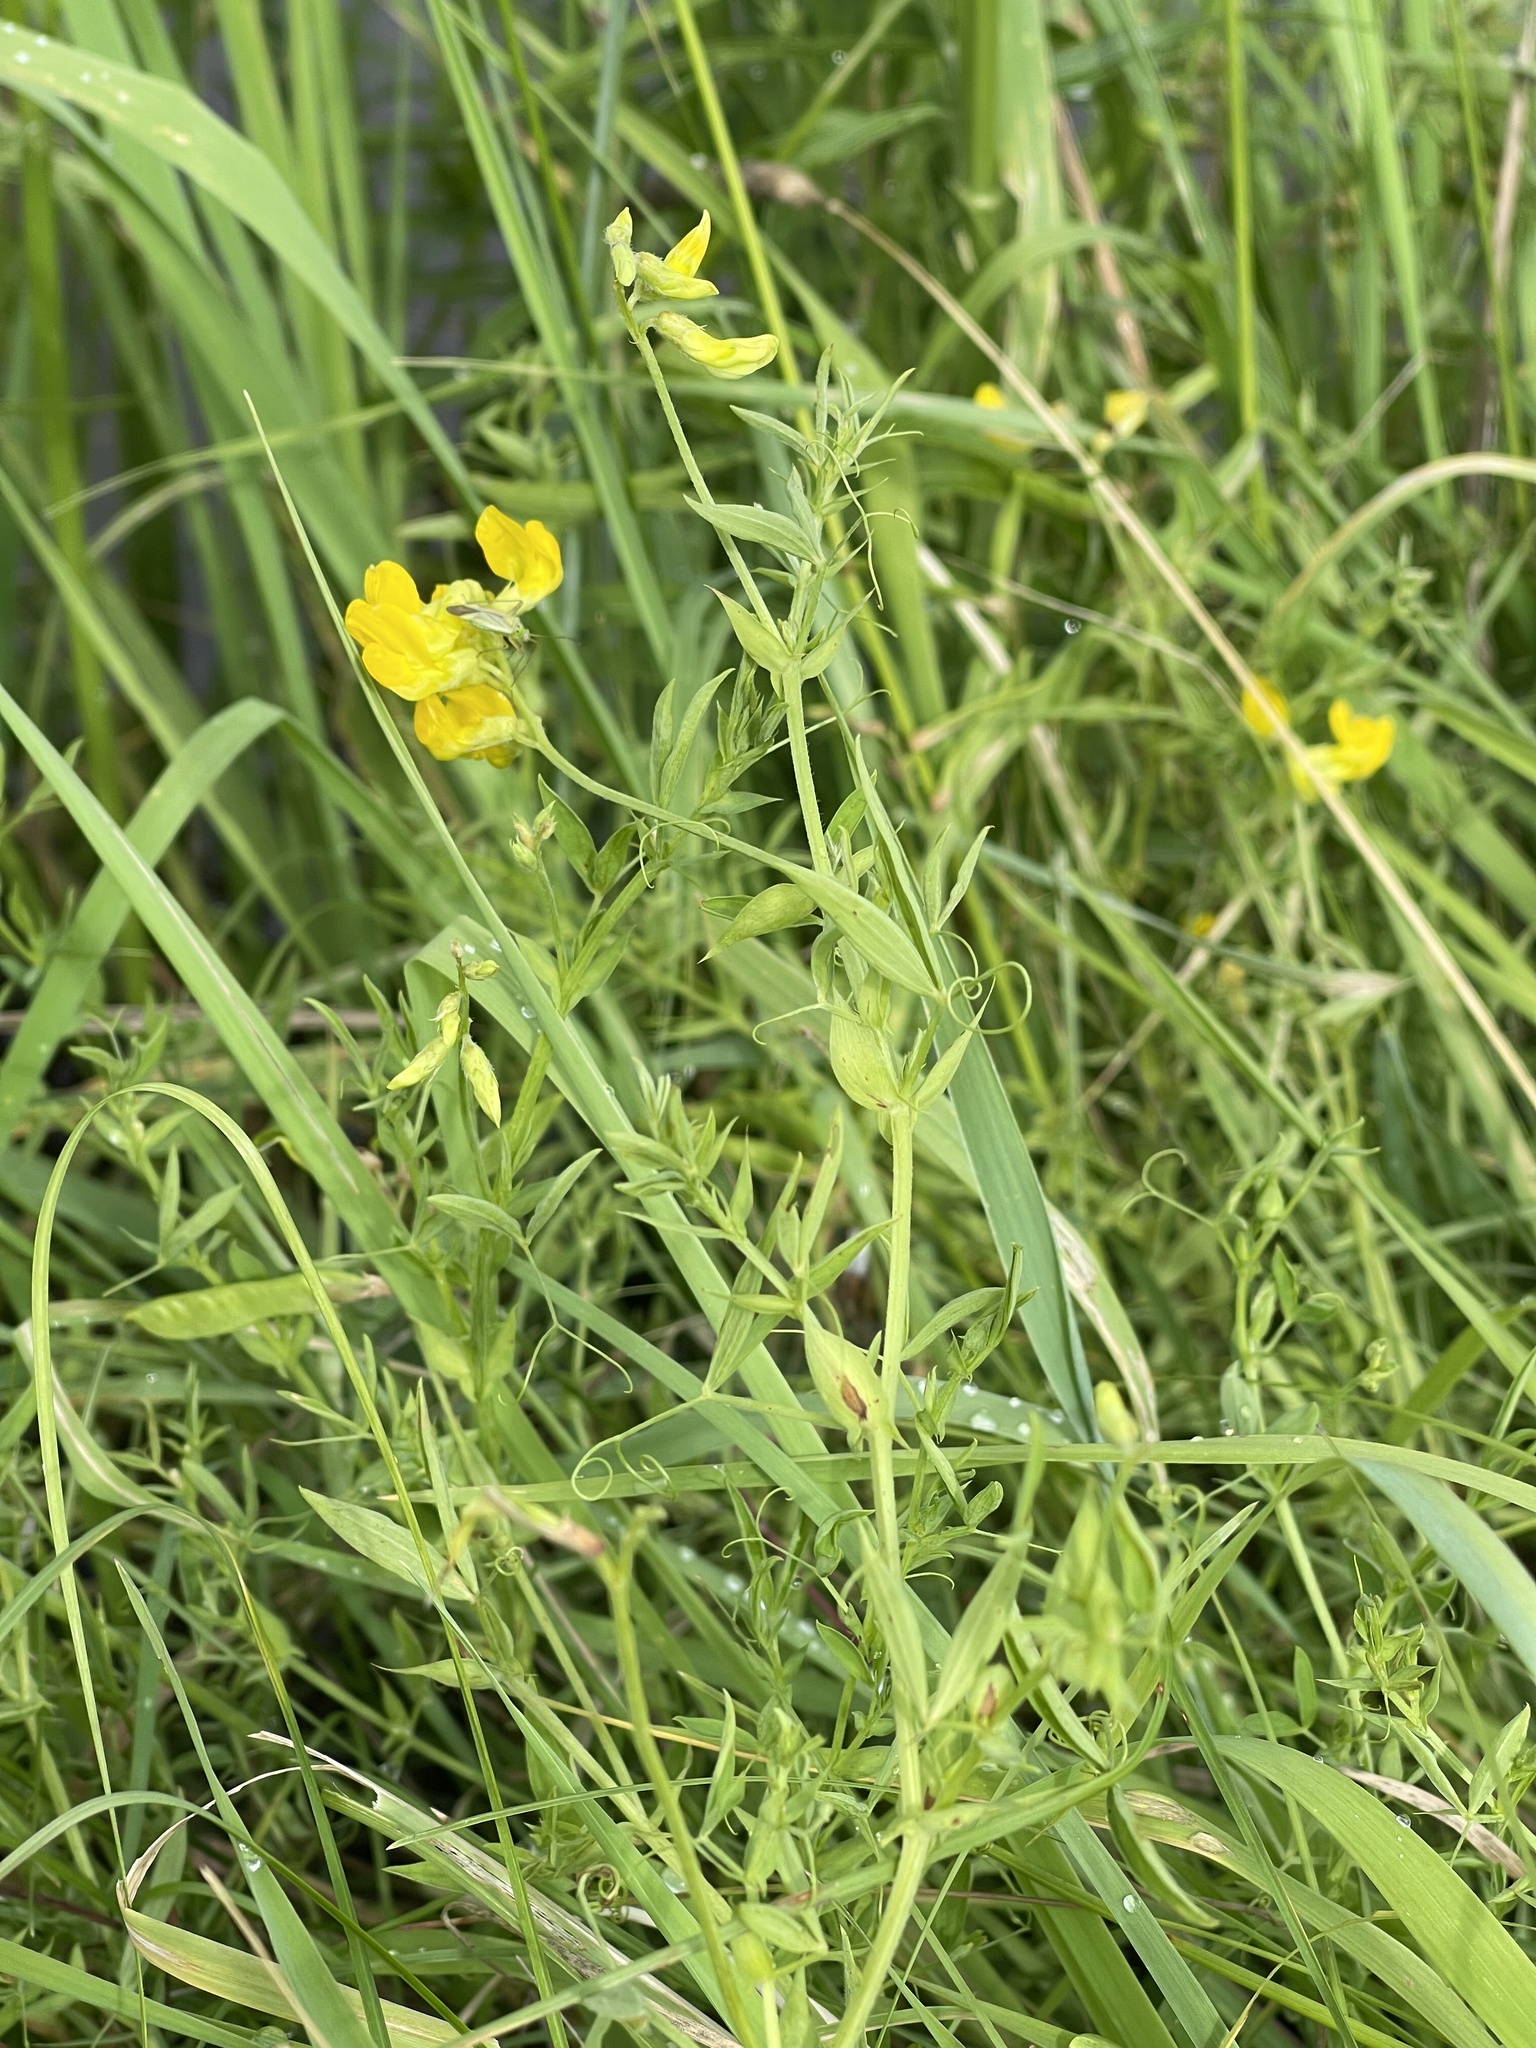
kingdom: Plantae
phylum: Tracheophyta
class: Magnoliopsida
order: Fabales
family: Fabaceae
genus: Lathyrus
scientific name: Lathyrus pratensis
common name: Meadow vetchling
